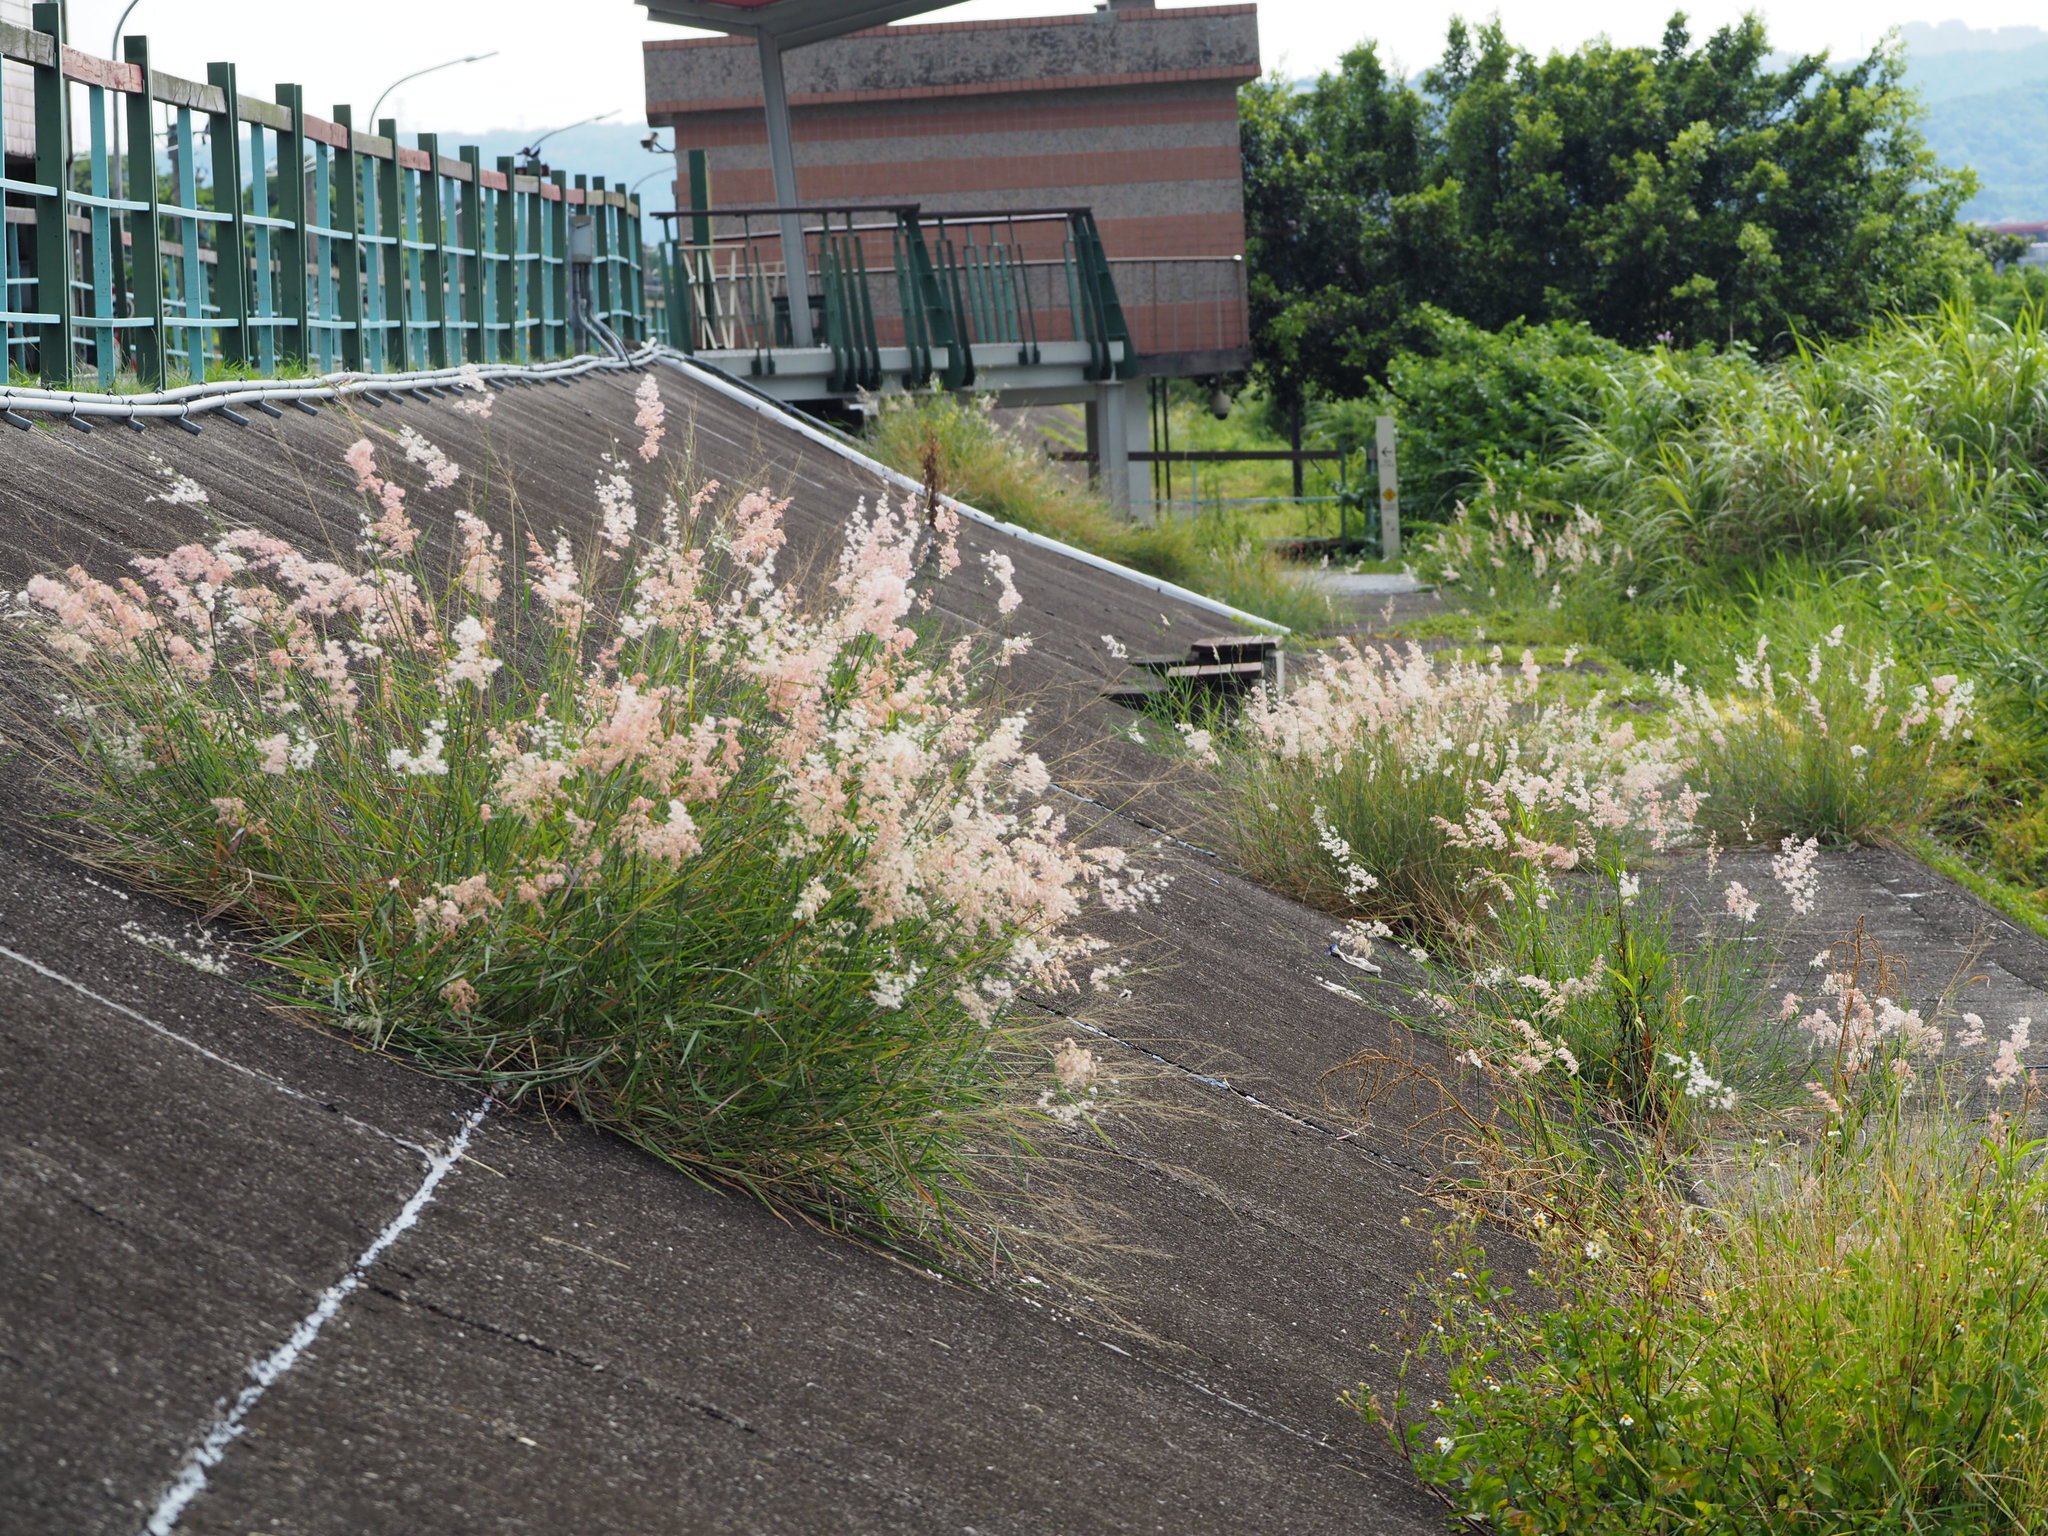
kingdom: Plantae
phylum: Tracheophyta
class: Liliopsida
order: Poales
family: Poaceae
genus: Melinis
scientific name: Melinis repens
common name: Rose natal grass
